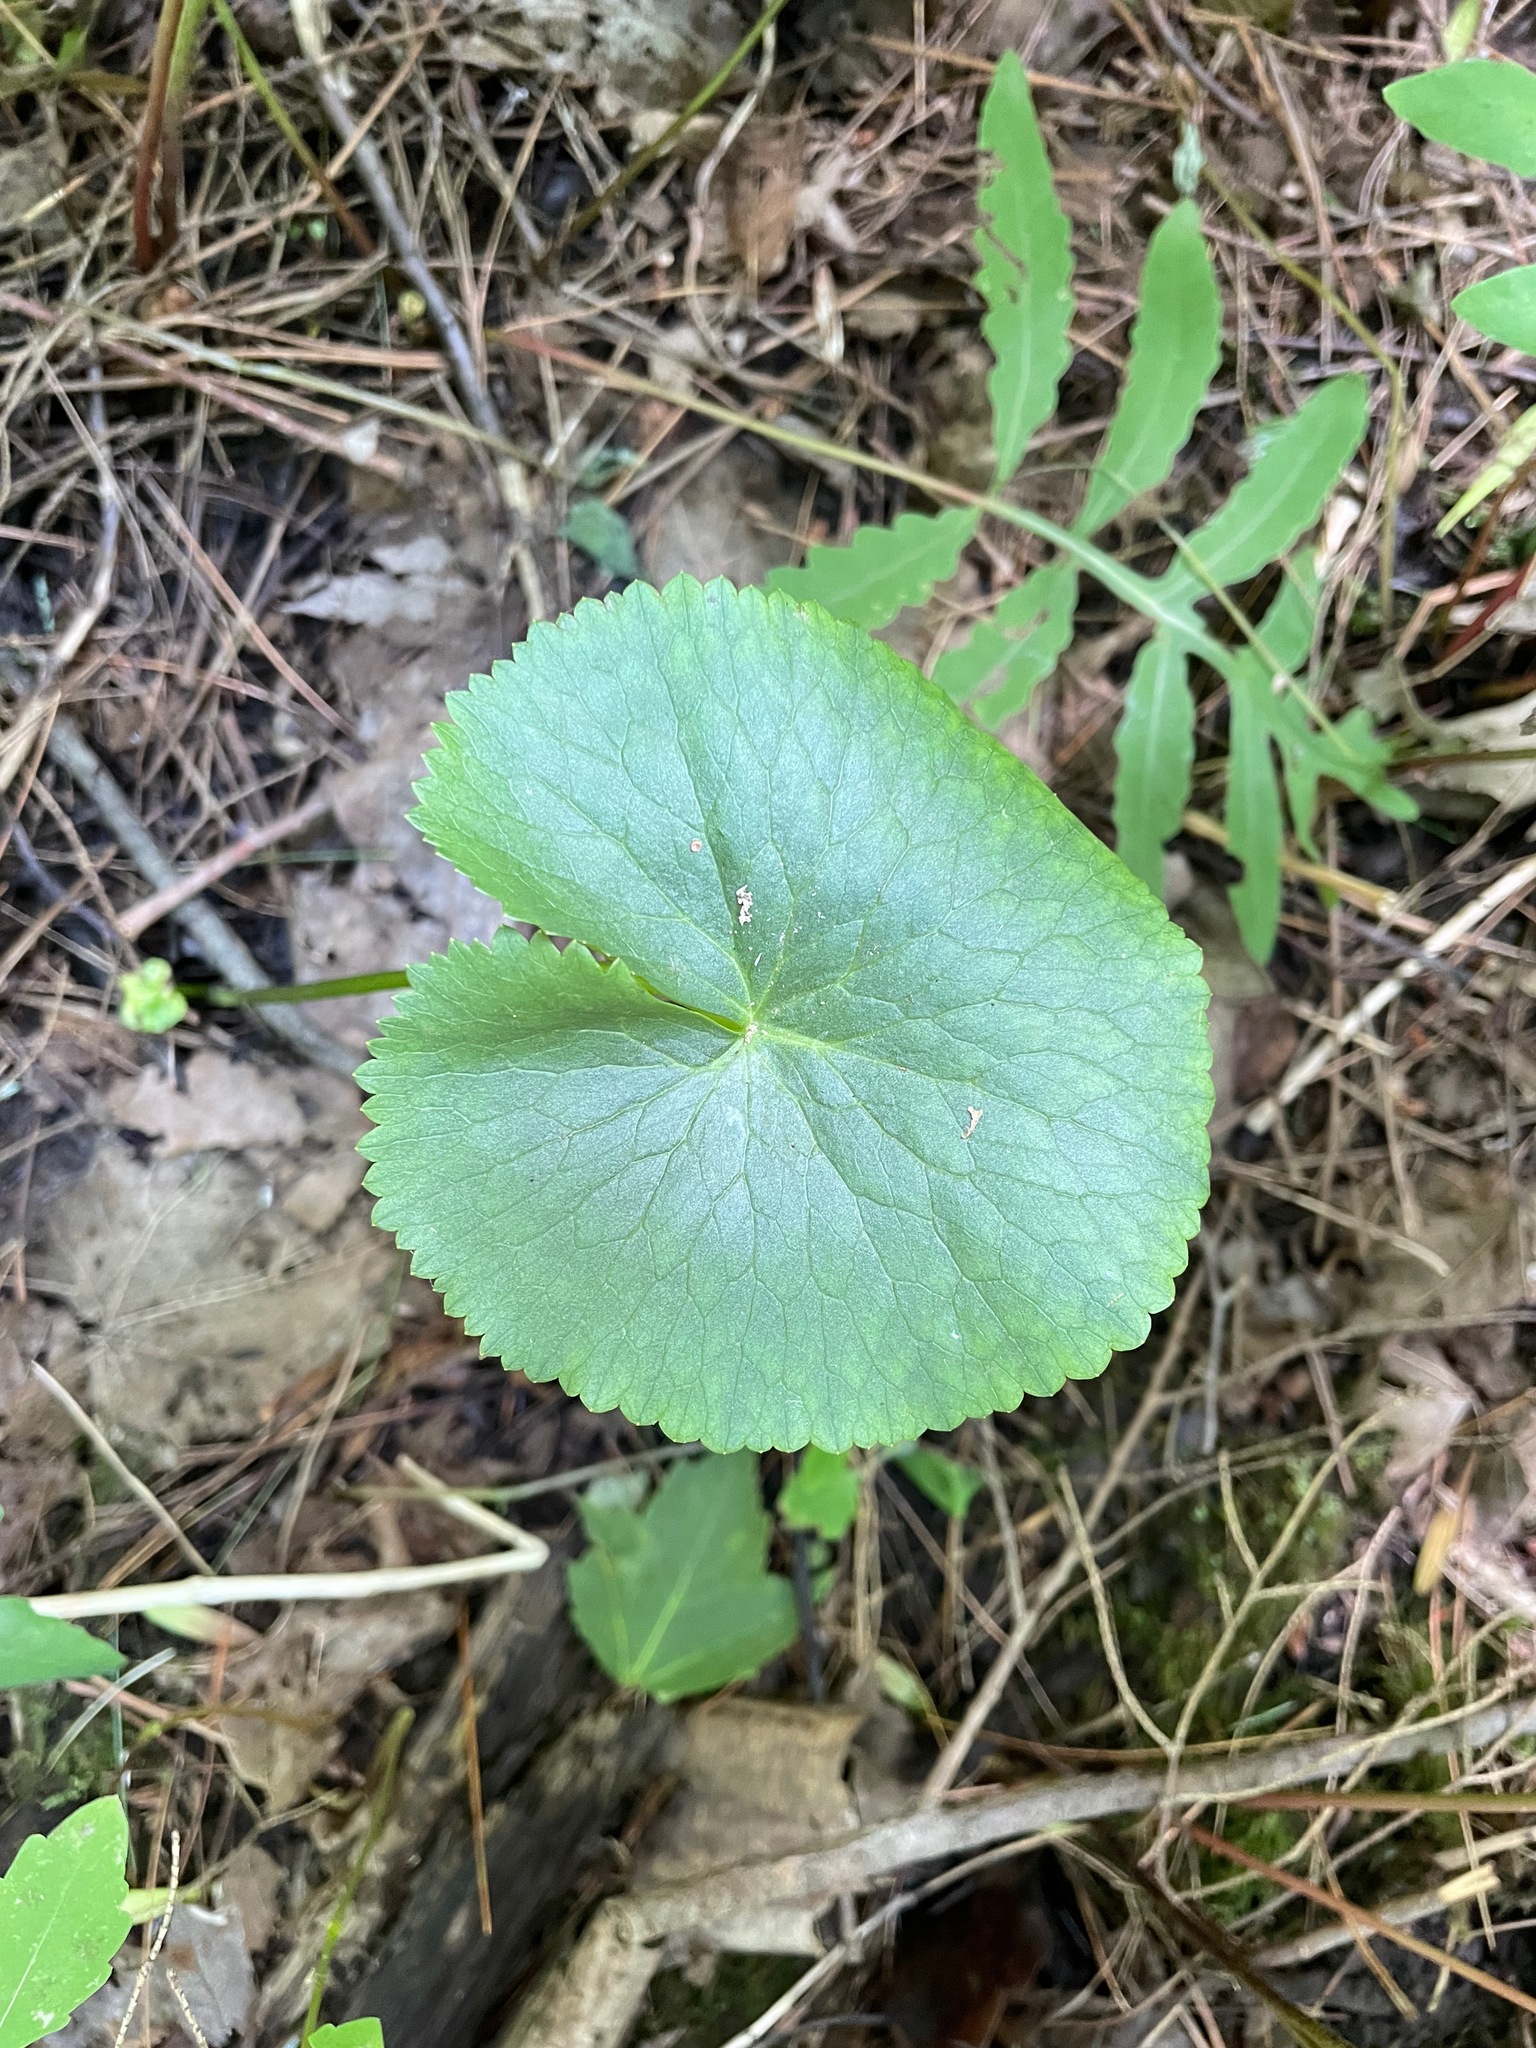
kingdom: Plantae
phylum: Tracheophyta
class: Magnoliopsida
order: Ranunculales
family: Ranunculaceae
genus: Caltha
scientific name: Caltha palustris
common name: Marsh marigold
